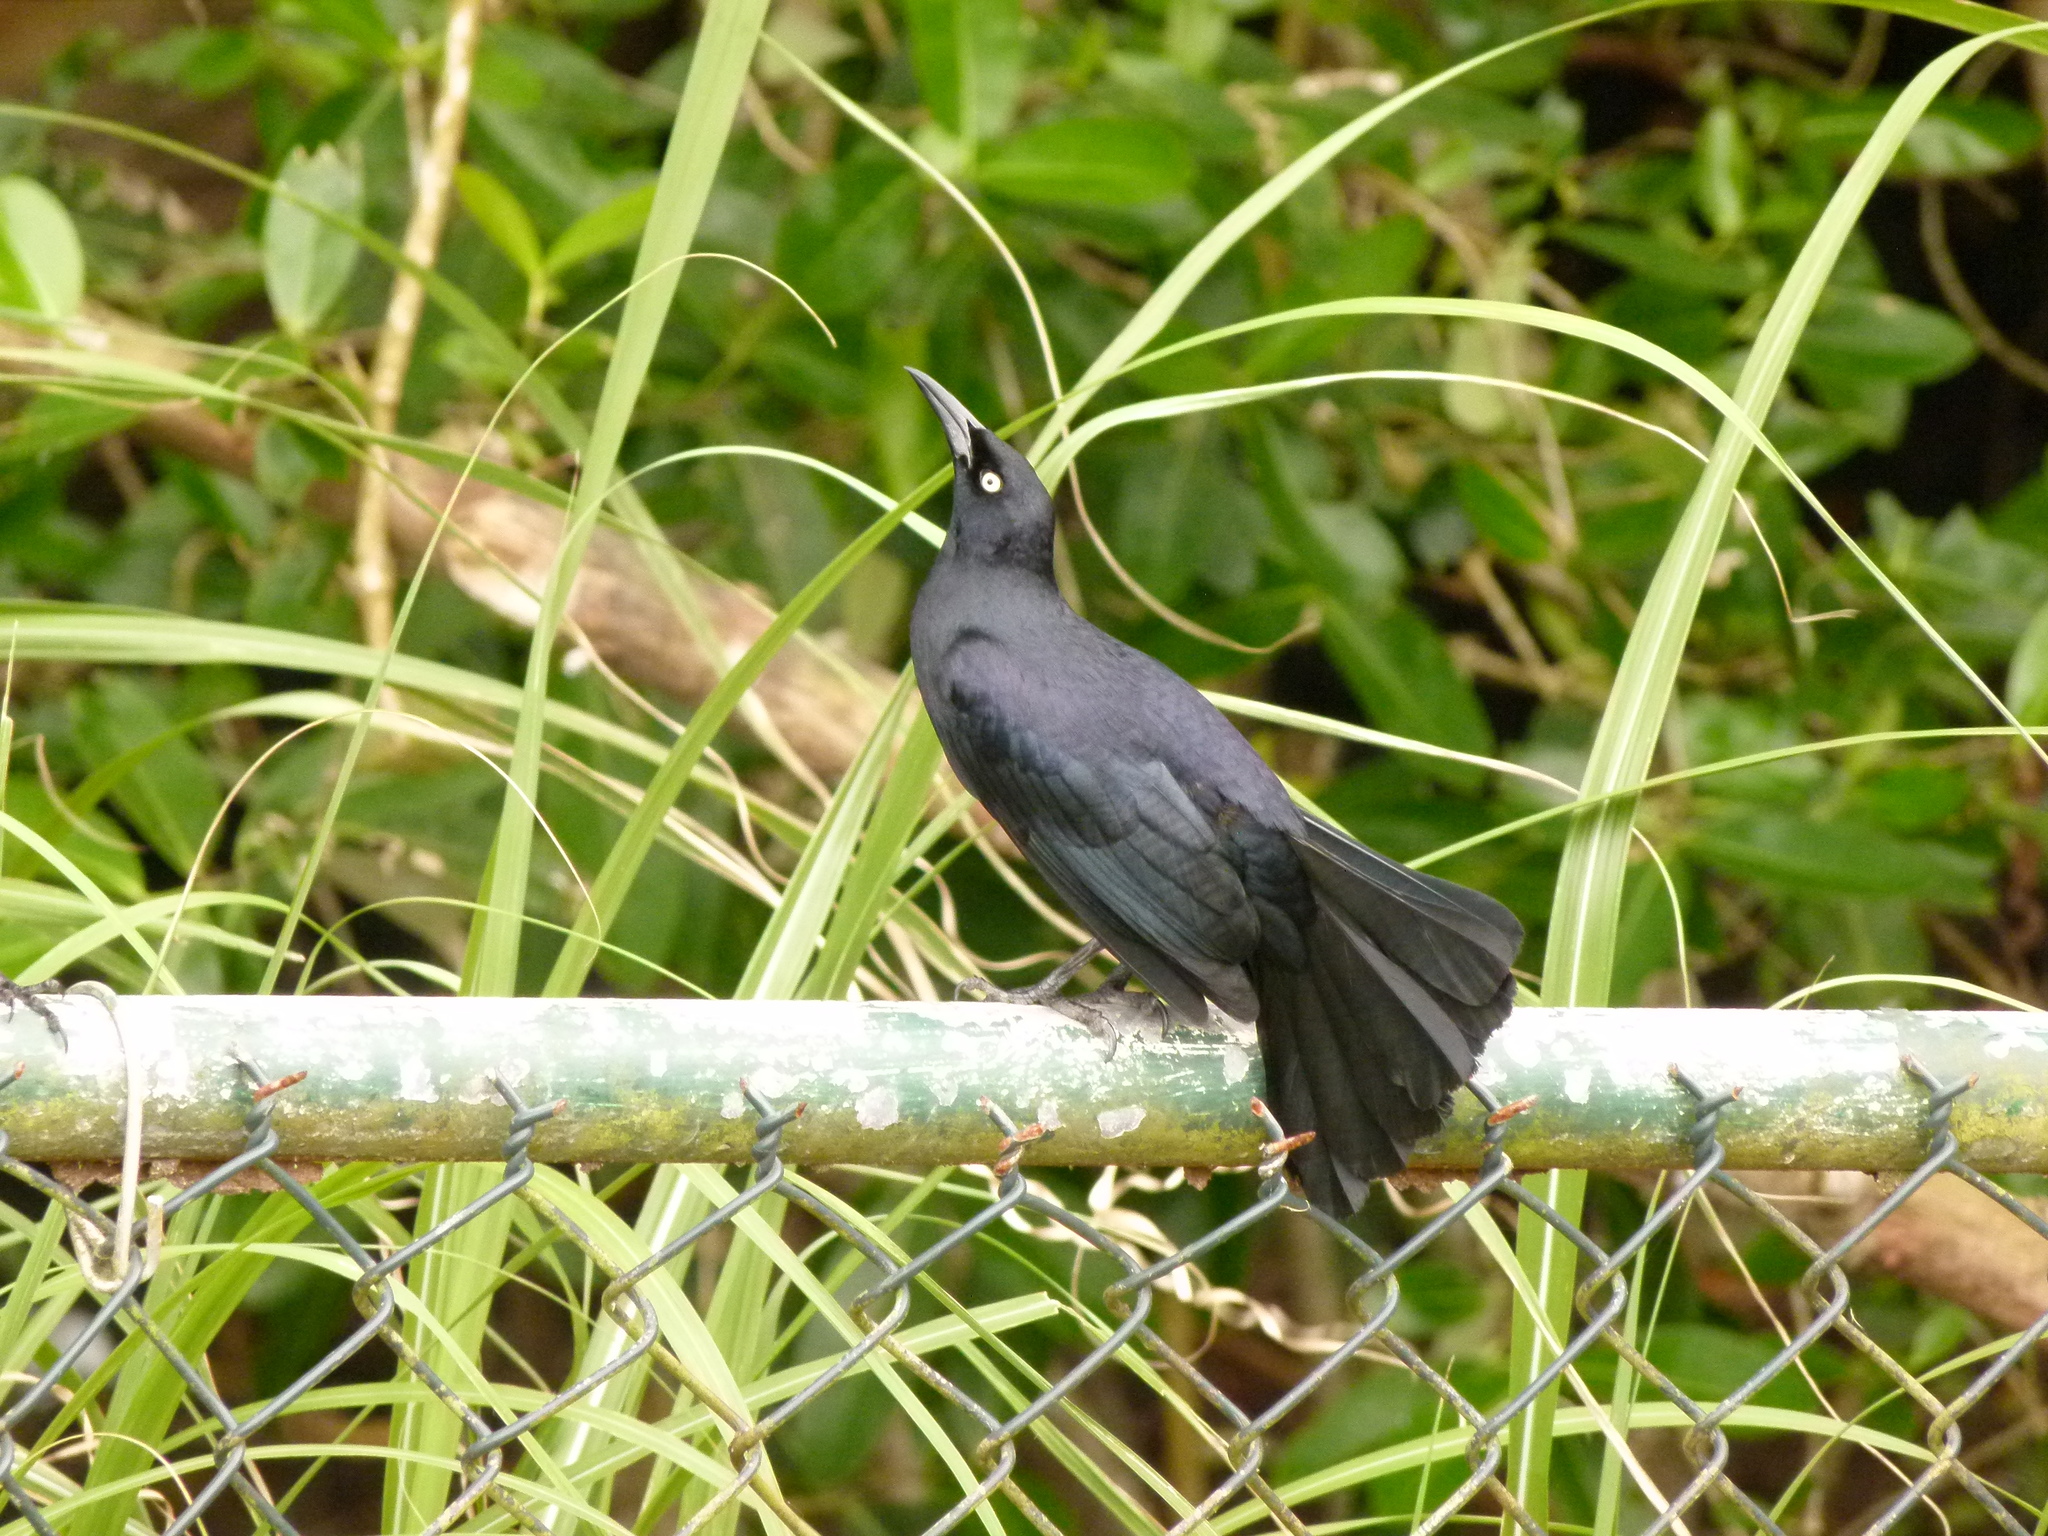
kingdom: Animalia
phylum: Chordata
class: Aves
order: Passeriformes
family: Icteridae
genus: Quiscalus
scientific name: Quiscalus niger
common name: Greater antillean grackle
